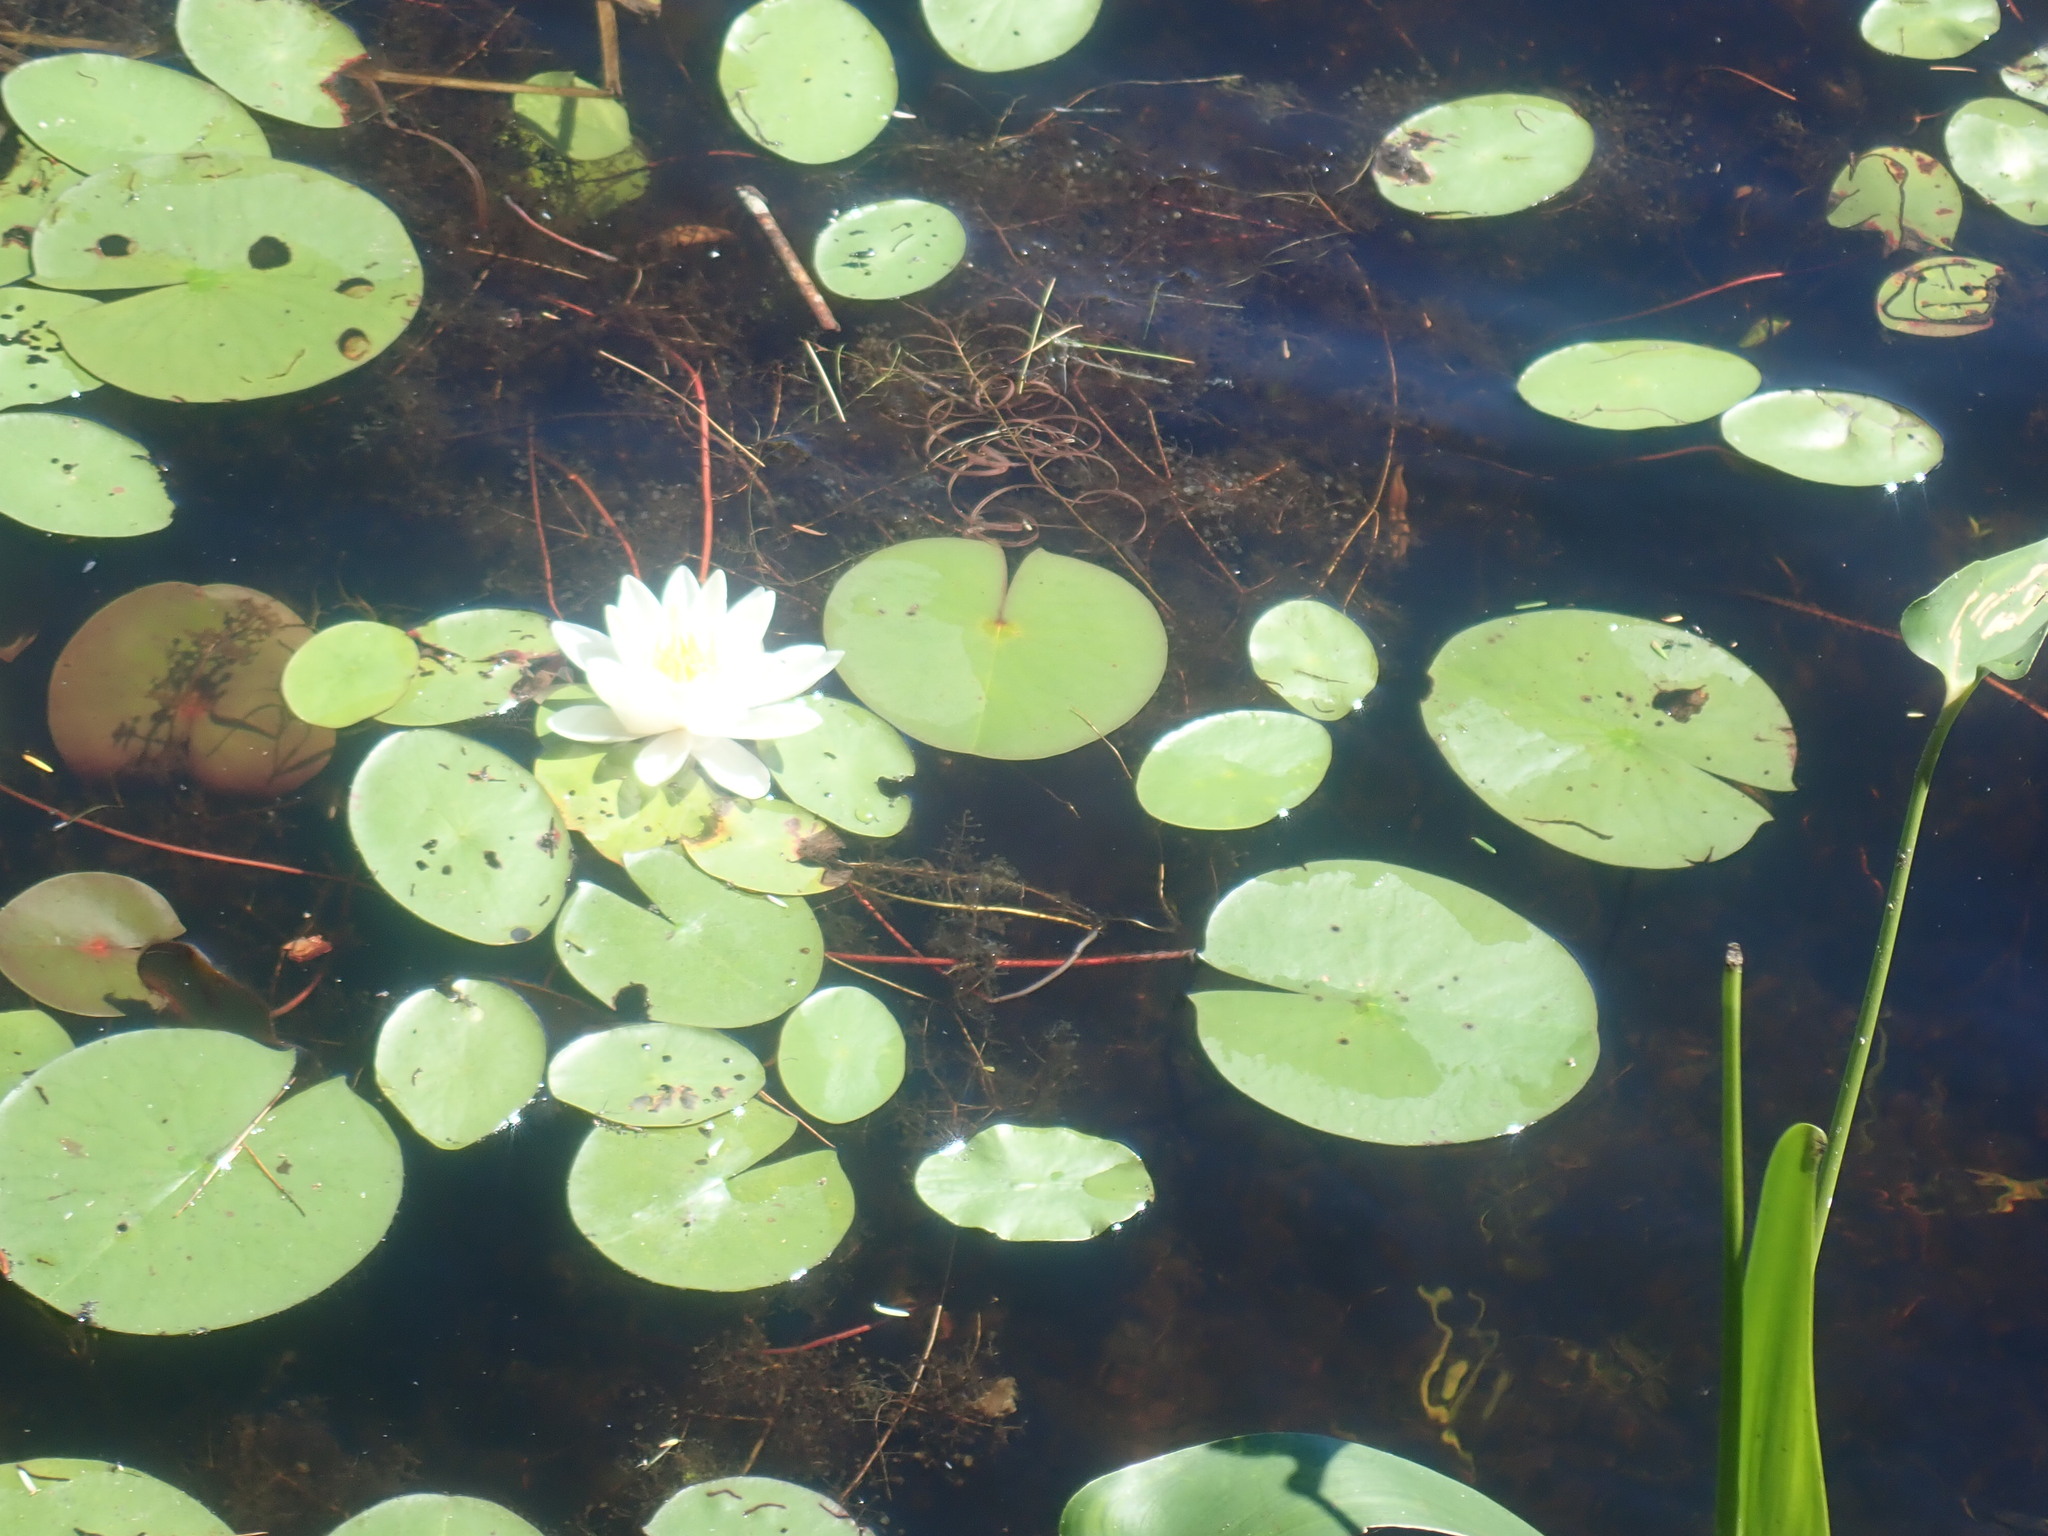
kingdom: Plantae
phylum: Tracheophyta
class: Magnoliopsida
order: Nymphaeales
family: Nymphaeaceae
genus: Nymphaea
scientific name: Nymphaea odorata
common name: Fragrant water-lily
